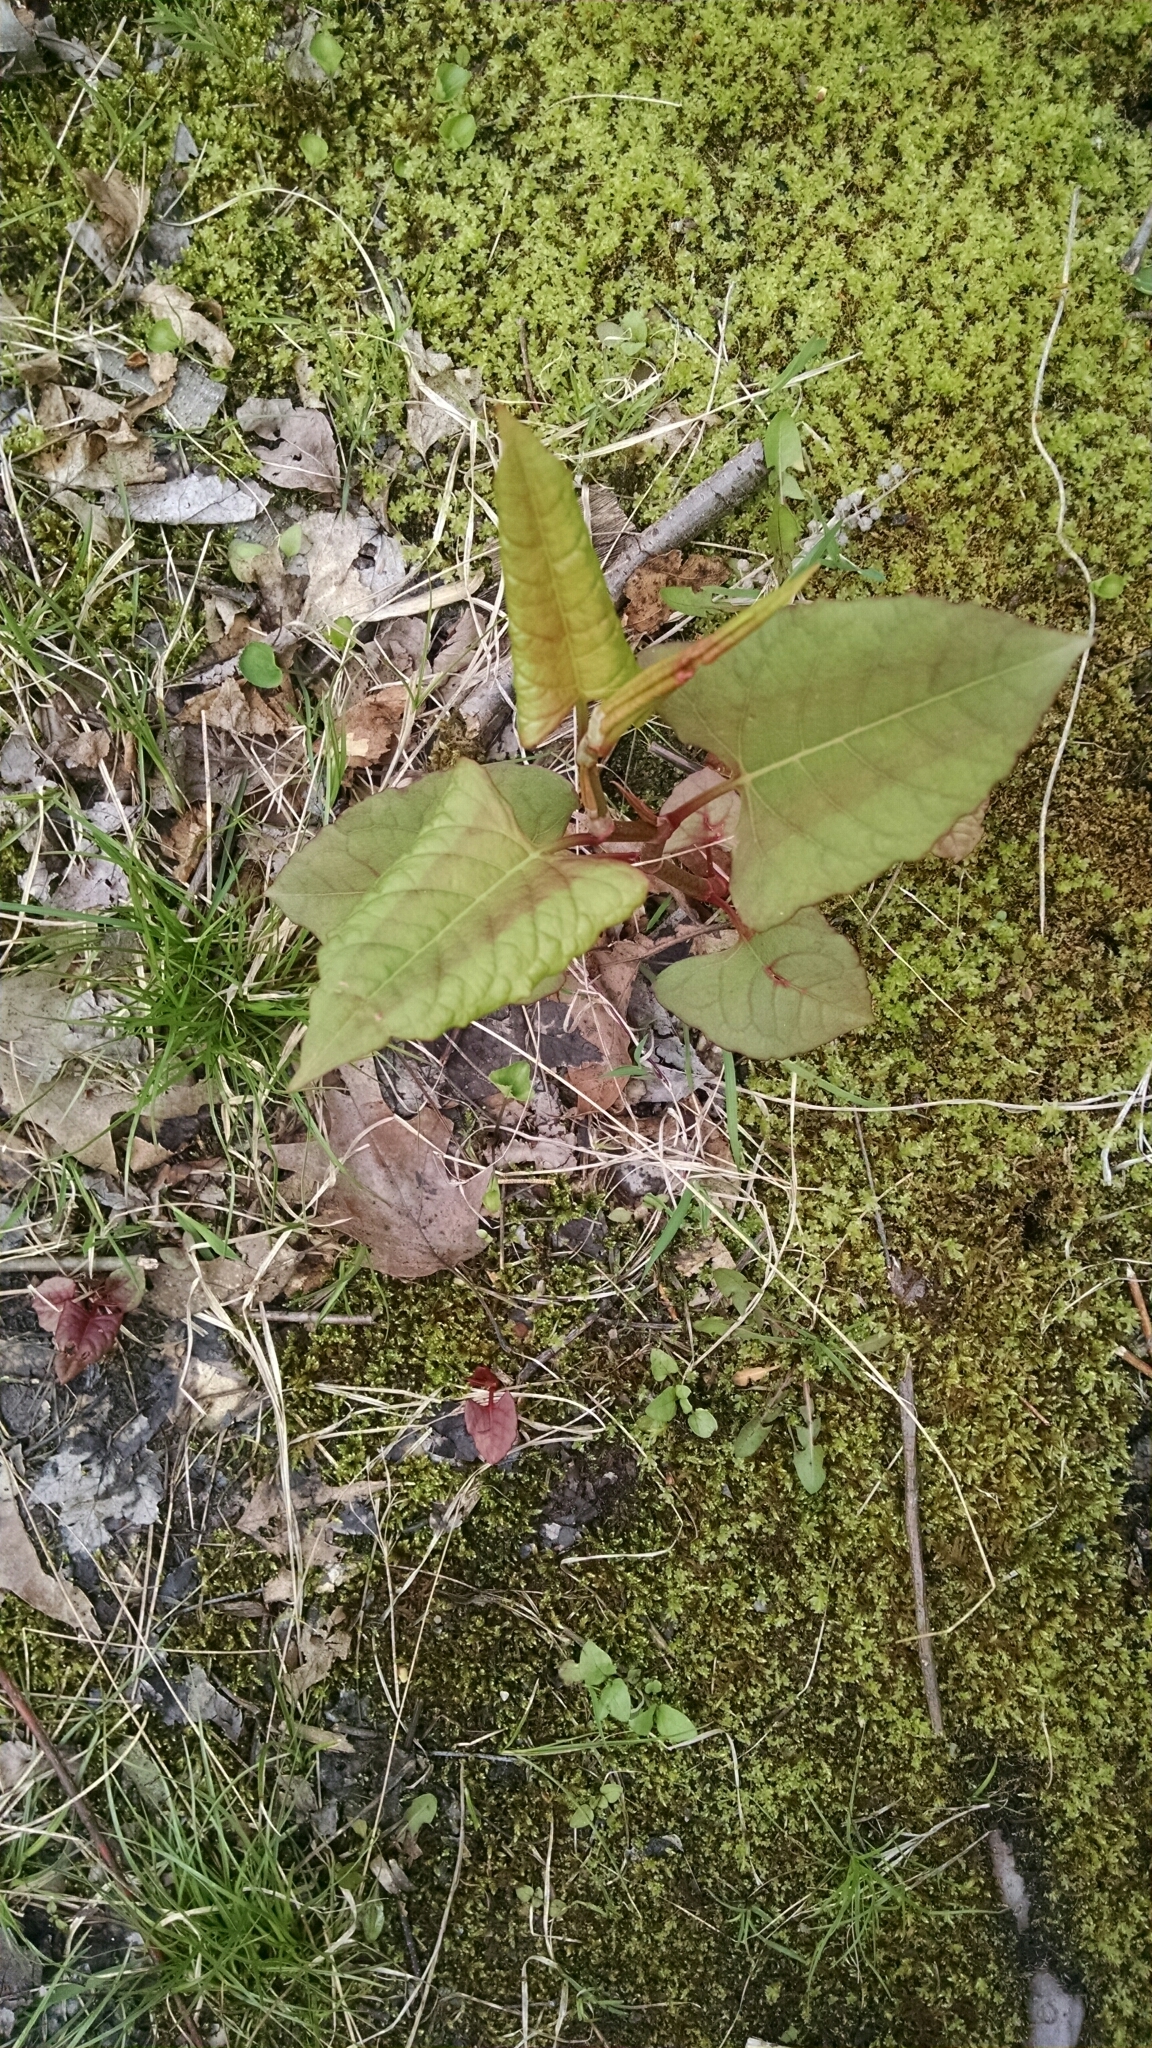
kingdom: Plantae
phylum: Tracheophyta
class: Magnoliopsida
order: Caryophyllales
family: Polygonaceae
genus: Reynoutria
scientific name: Reynoutria japonica
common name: Japanese knotweed
